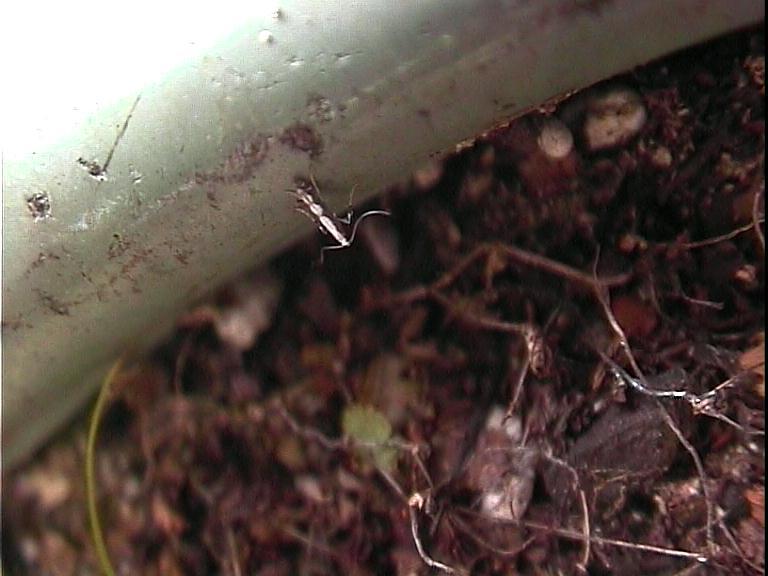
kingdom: Animalia
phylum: Arthropoda
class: Insecta
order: Lepidoptera
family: Gracillariidae
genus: Dialectica
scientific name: Dialectica scalariella
